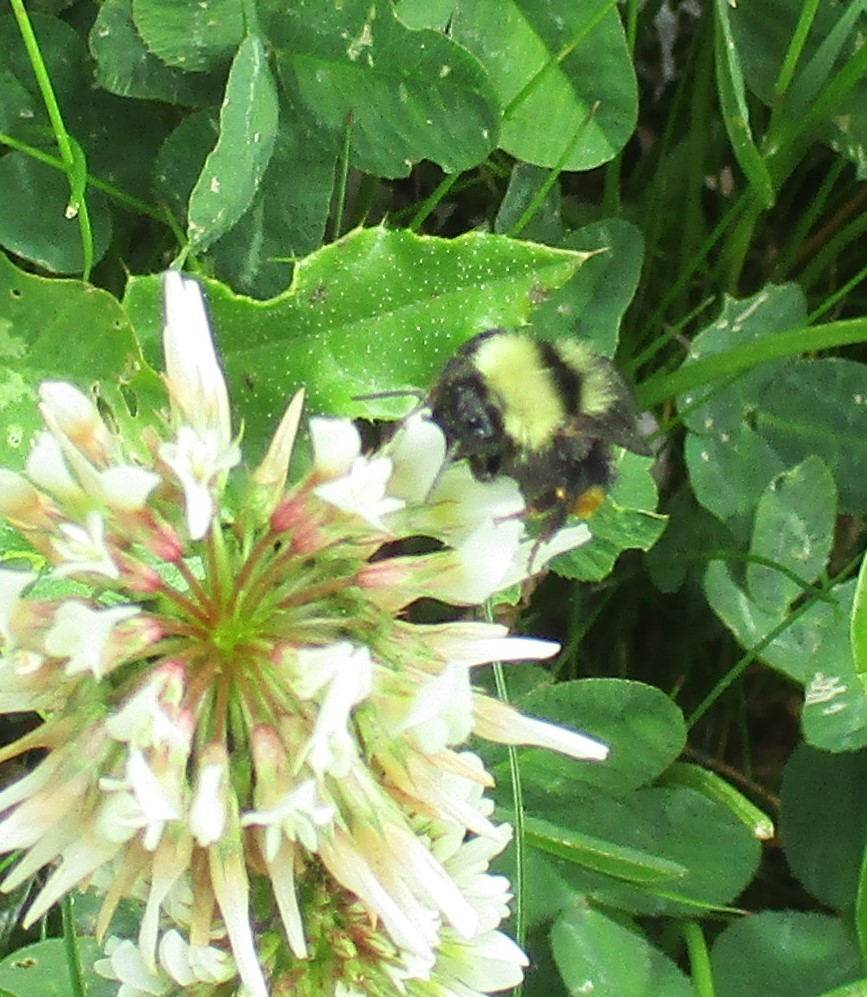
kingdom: Animalia
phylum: Arthropoda
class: Insecta
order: Hymenoptera
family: Apidae
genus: Bombus
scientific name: Bombus californicus
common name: California bumble bee
